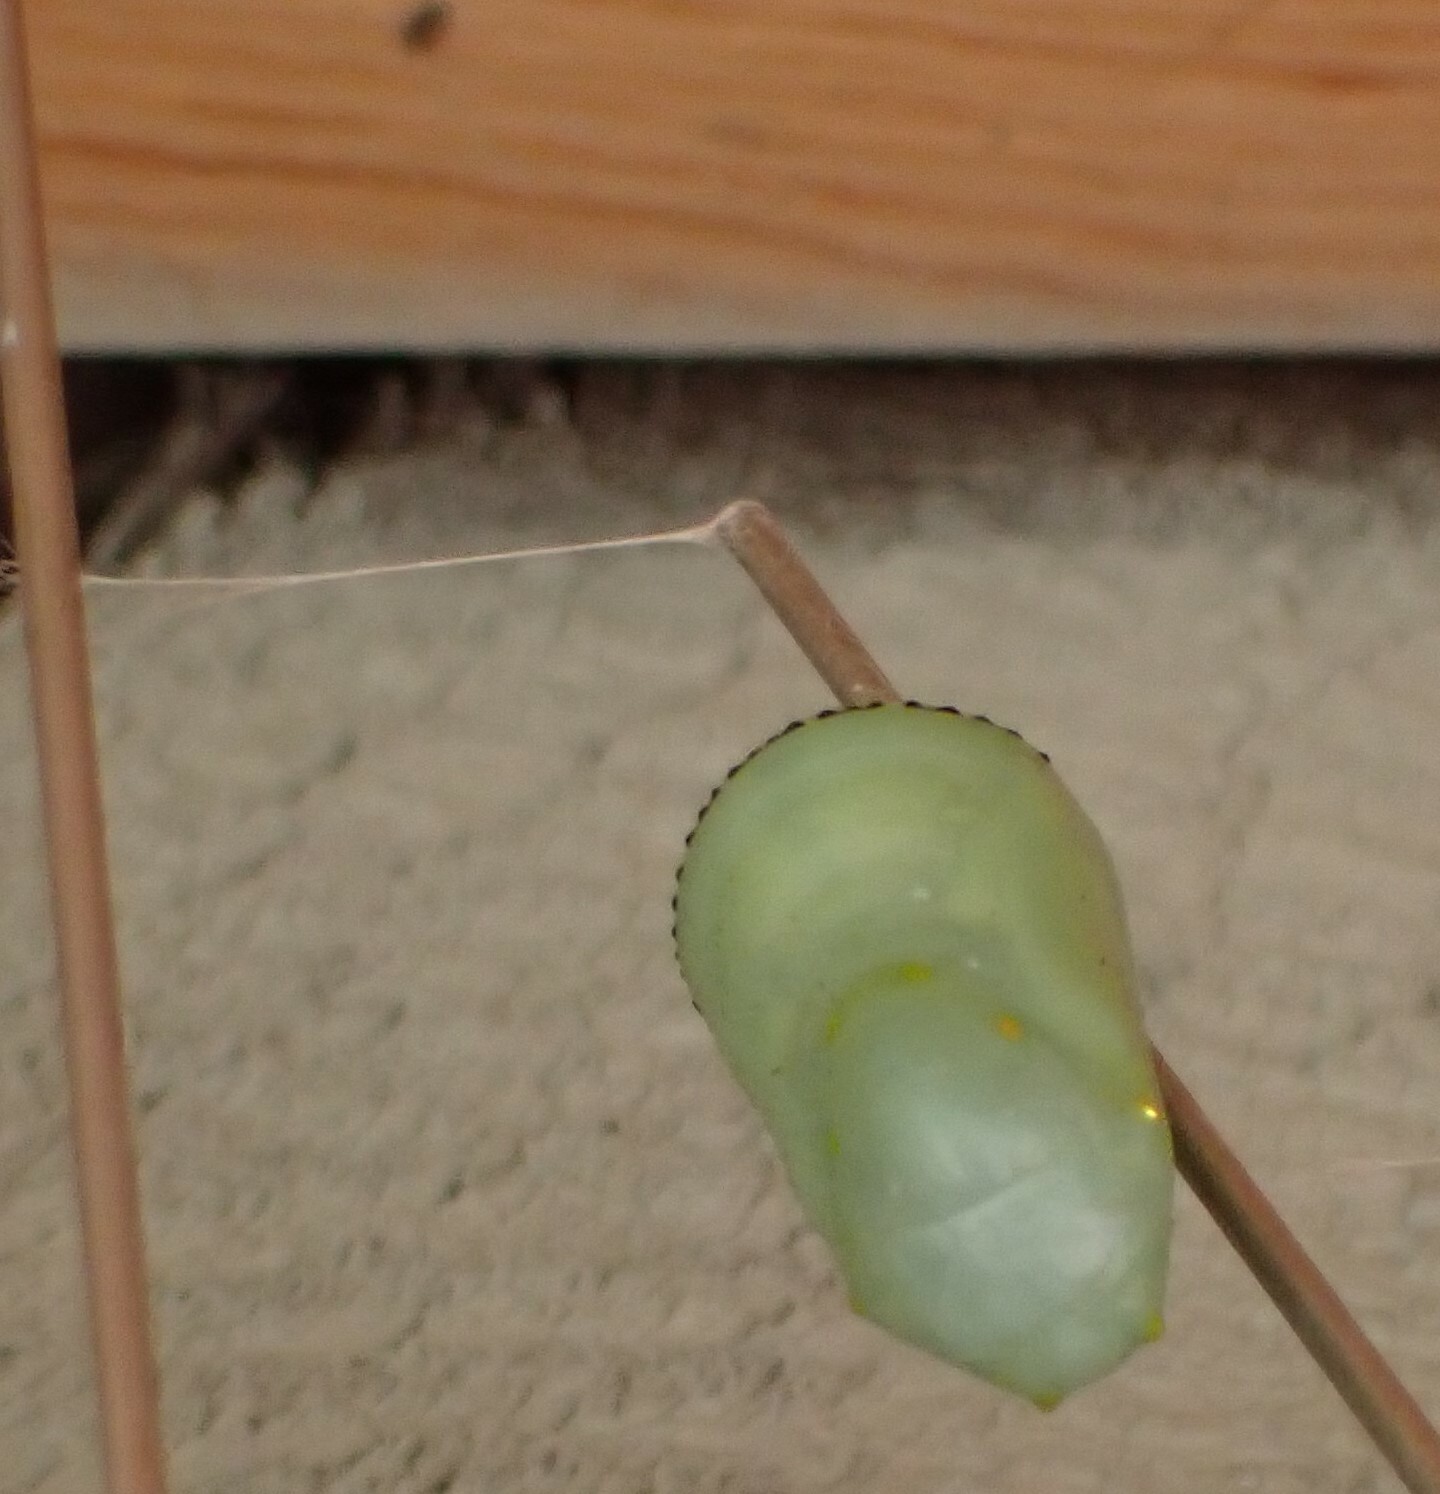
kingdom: Animalia
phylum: Arthropoda
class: Insecta
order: Lepidoptera
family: Nymphalidae
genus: Danaus
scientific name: Danaus plexippus
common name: Monarch
